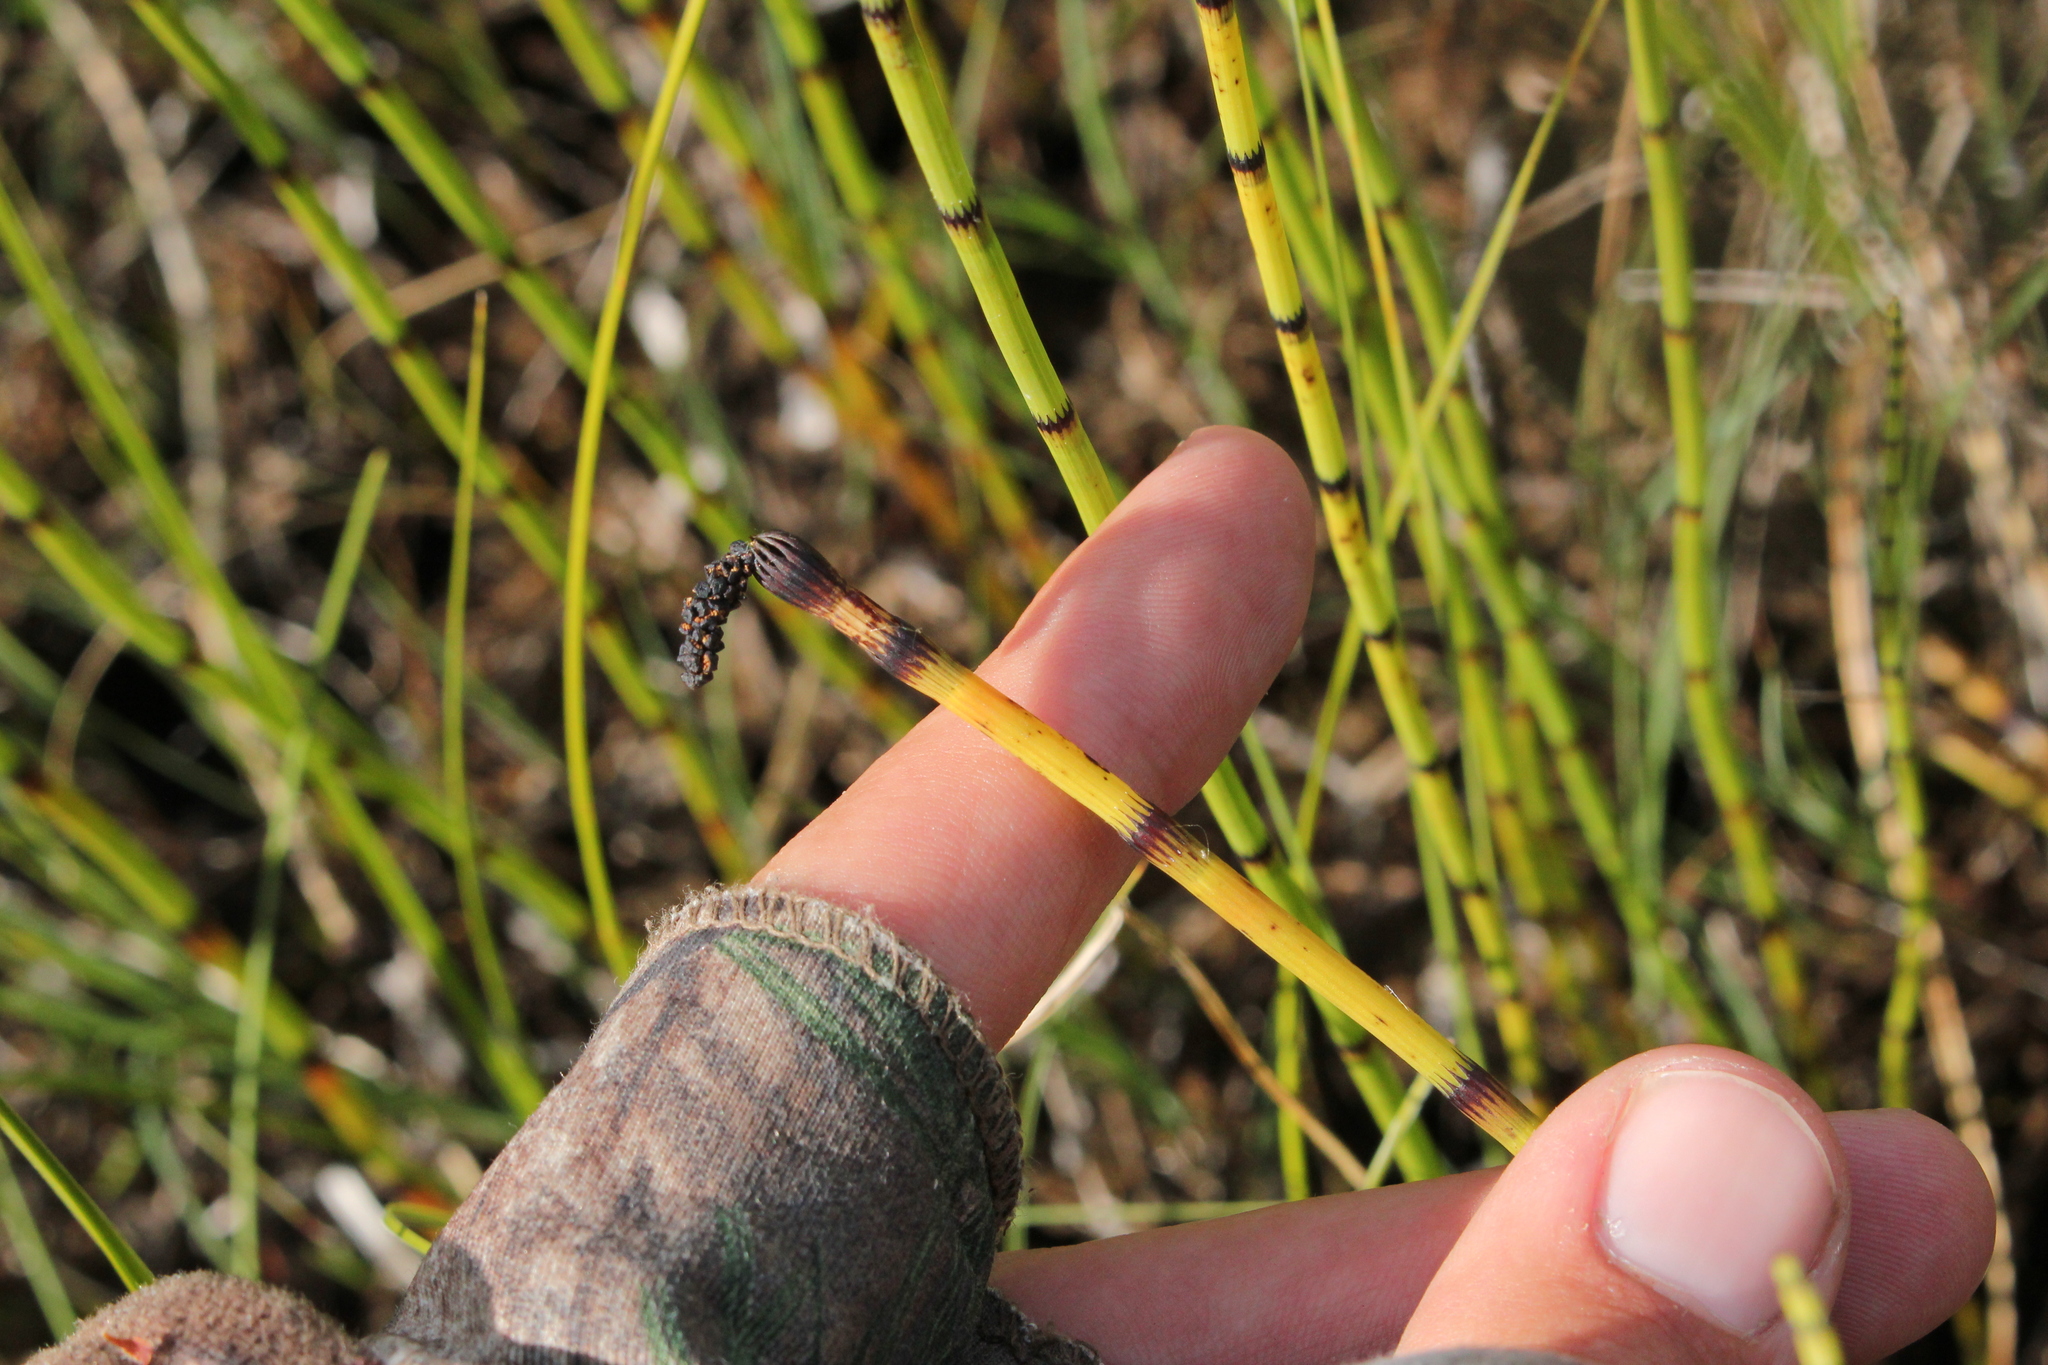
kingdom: Plantae
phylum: Tracheophyta
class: Polypodiopsida
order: Equisetales
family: Equisetaceae
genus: Equisetum
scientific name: Equisetum fluviatile
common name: Water horsetail
